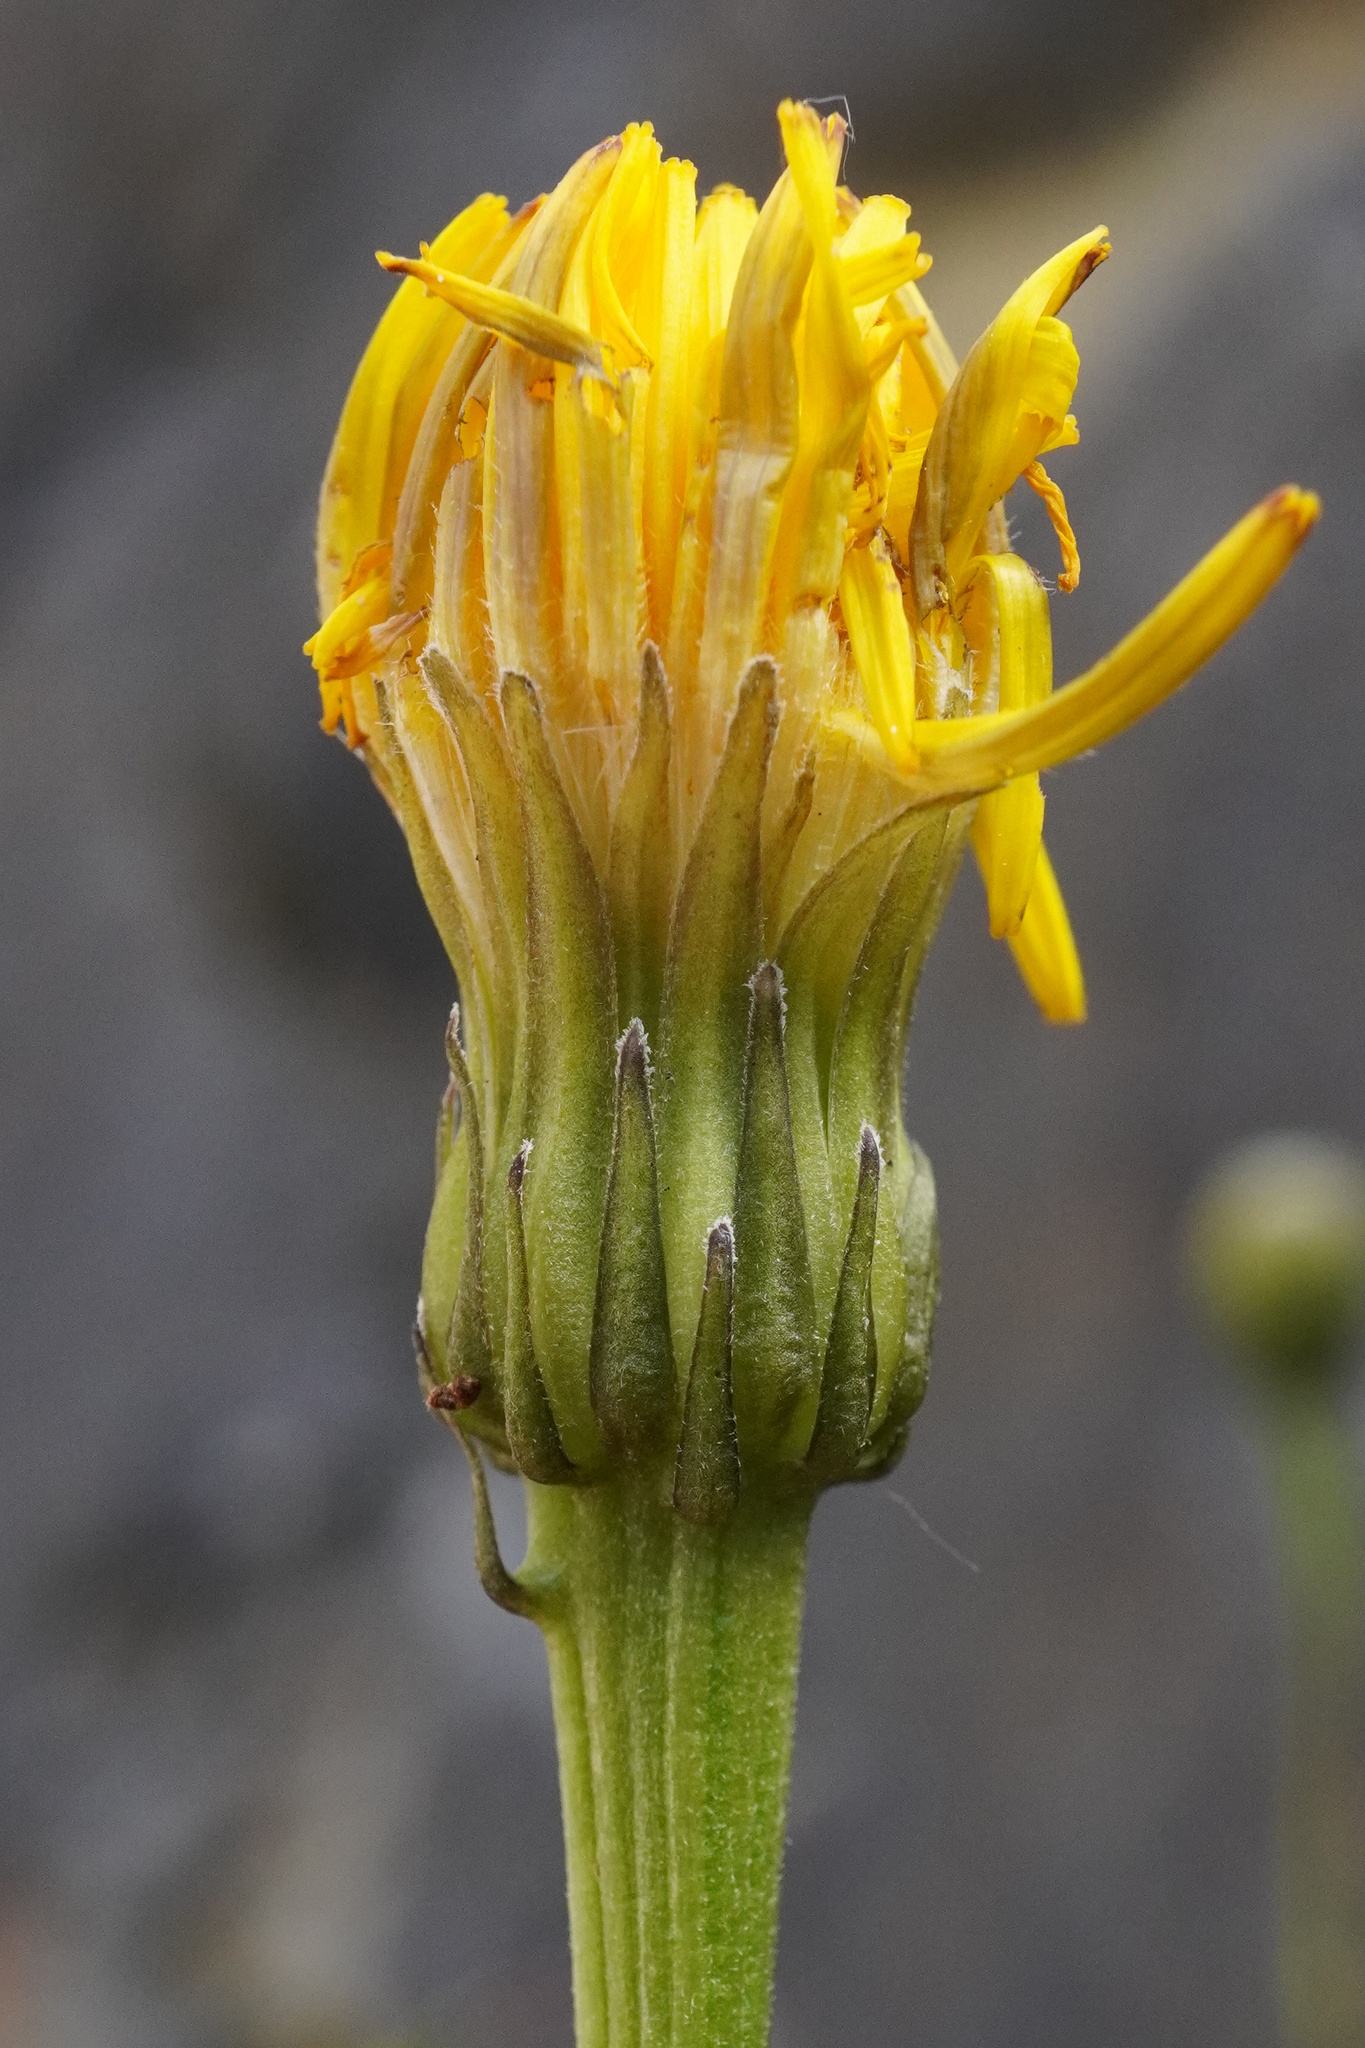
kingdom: Plantae
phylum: Tracheophyta
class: Magnoliopsida
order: Asterales
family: Asteraceae
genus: Leontodon
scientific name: Leontodon hispidus
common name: Rough hawkbit
